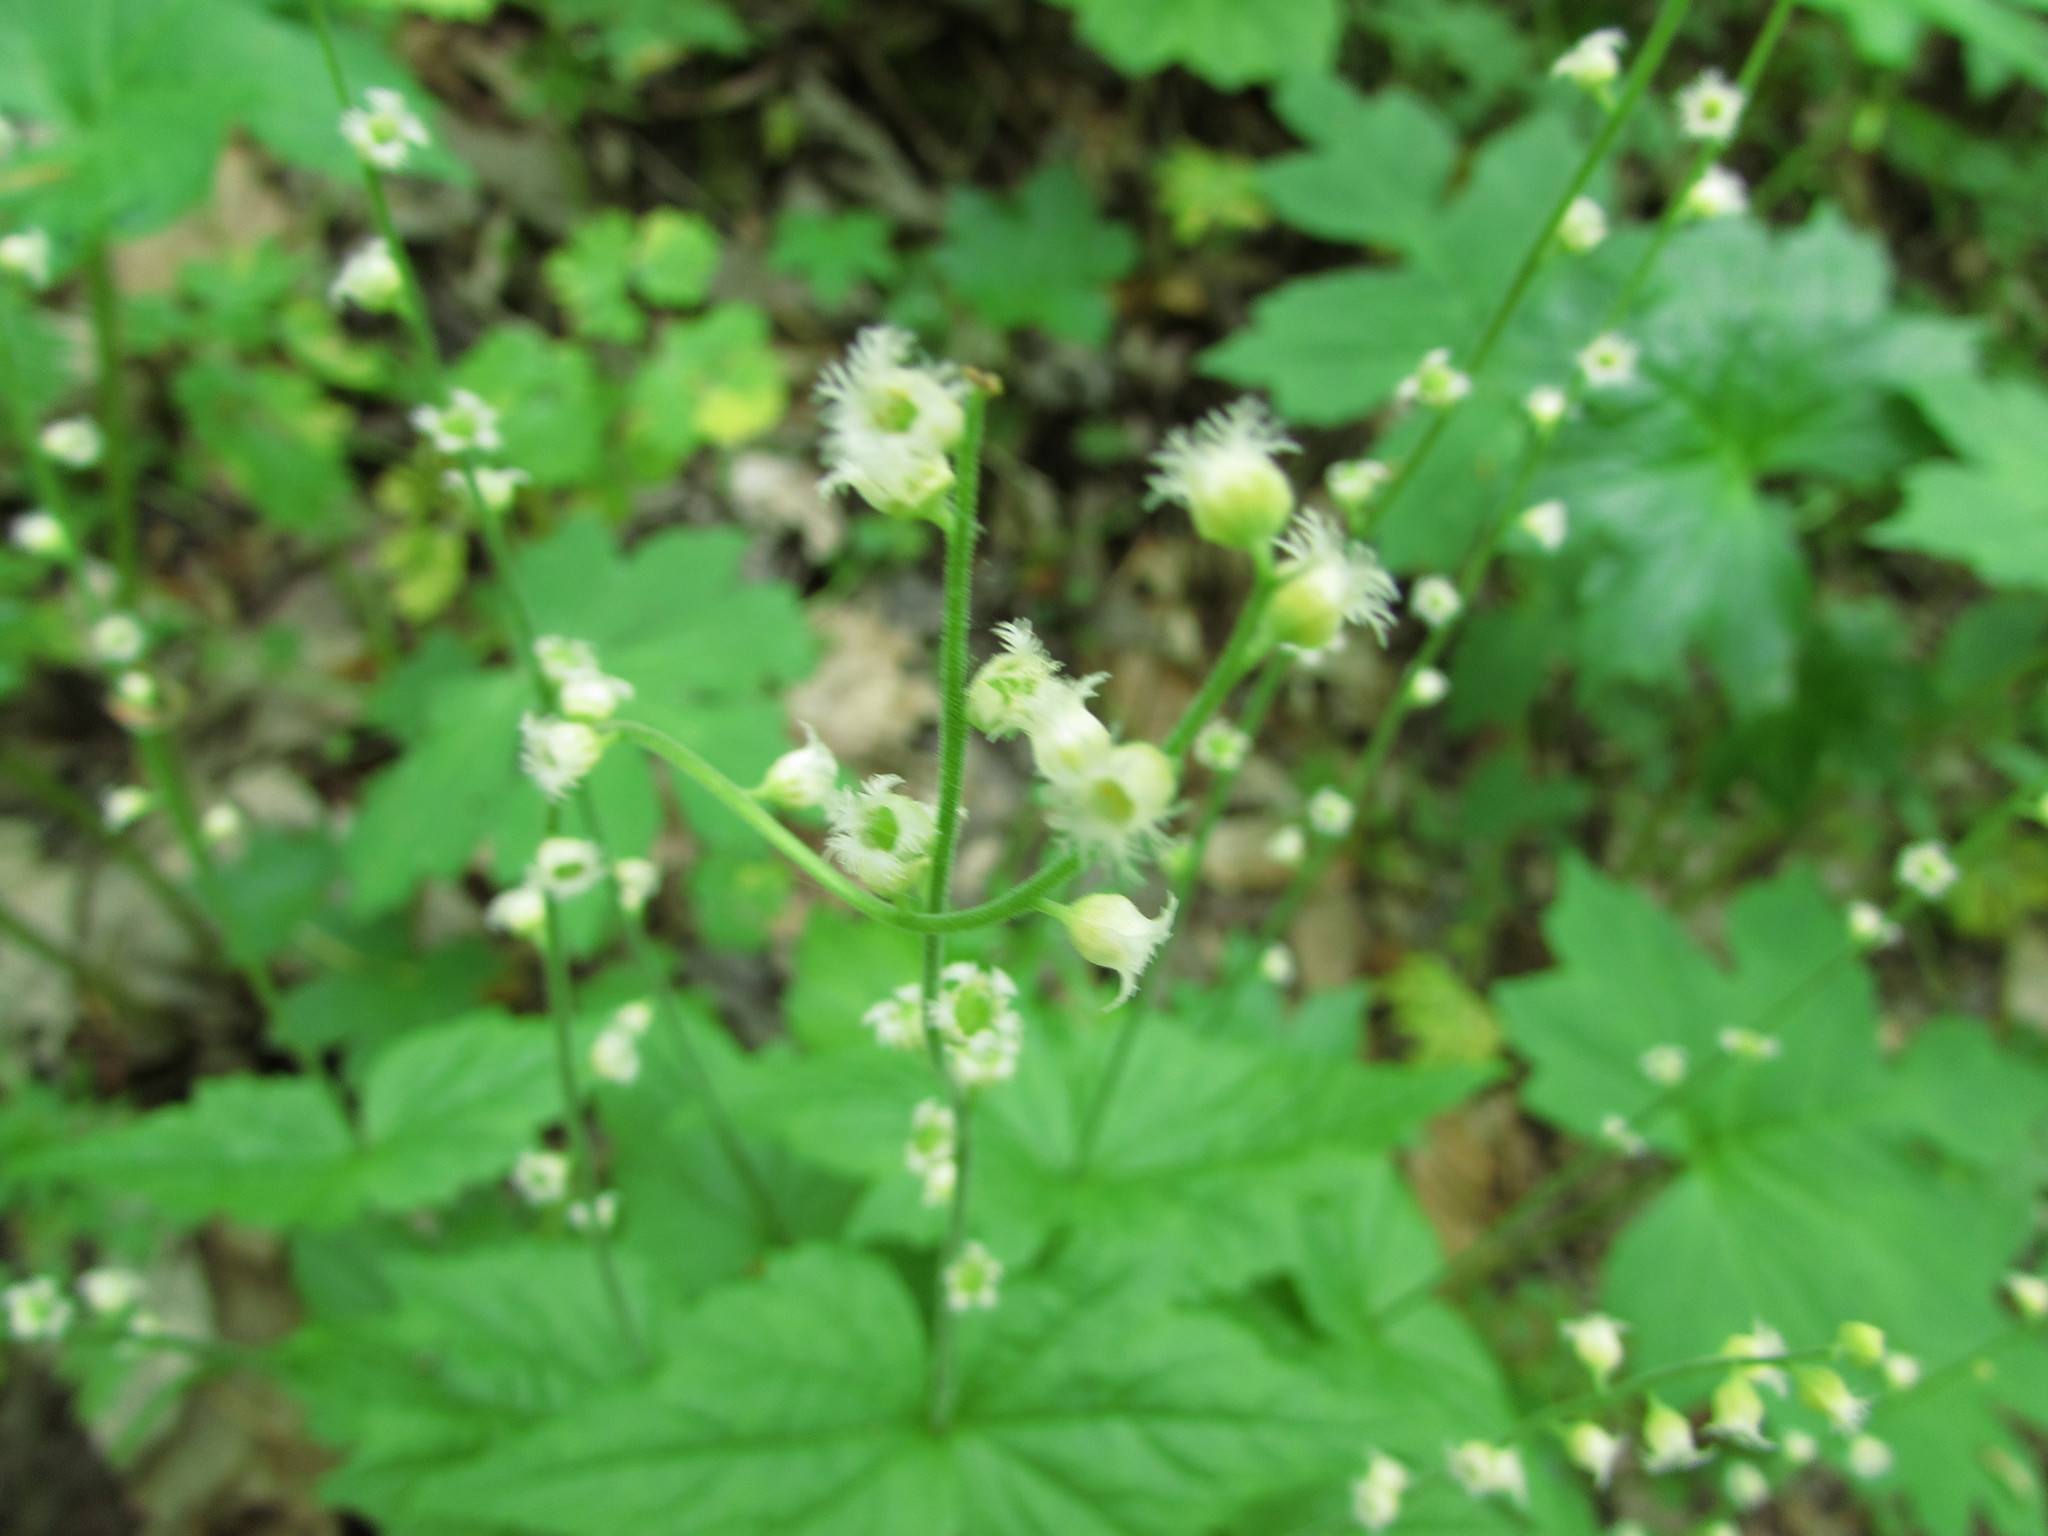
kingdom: Plantae
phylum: Tracheophyta
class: Magnoliopsida
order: Saxifragales
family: Saxifragaceae
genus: Mitella
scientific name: Mitella diphylla
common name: Coolwort
